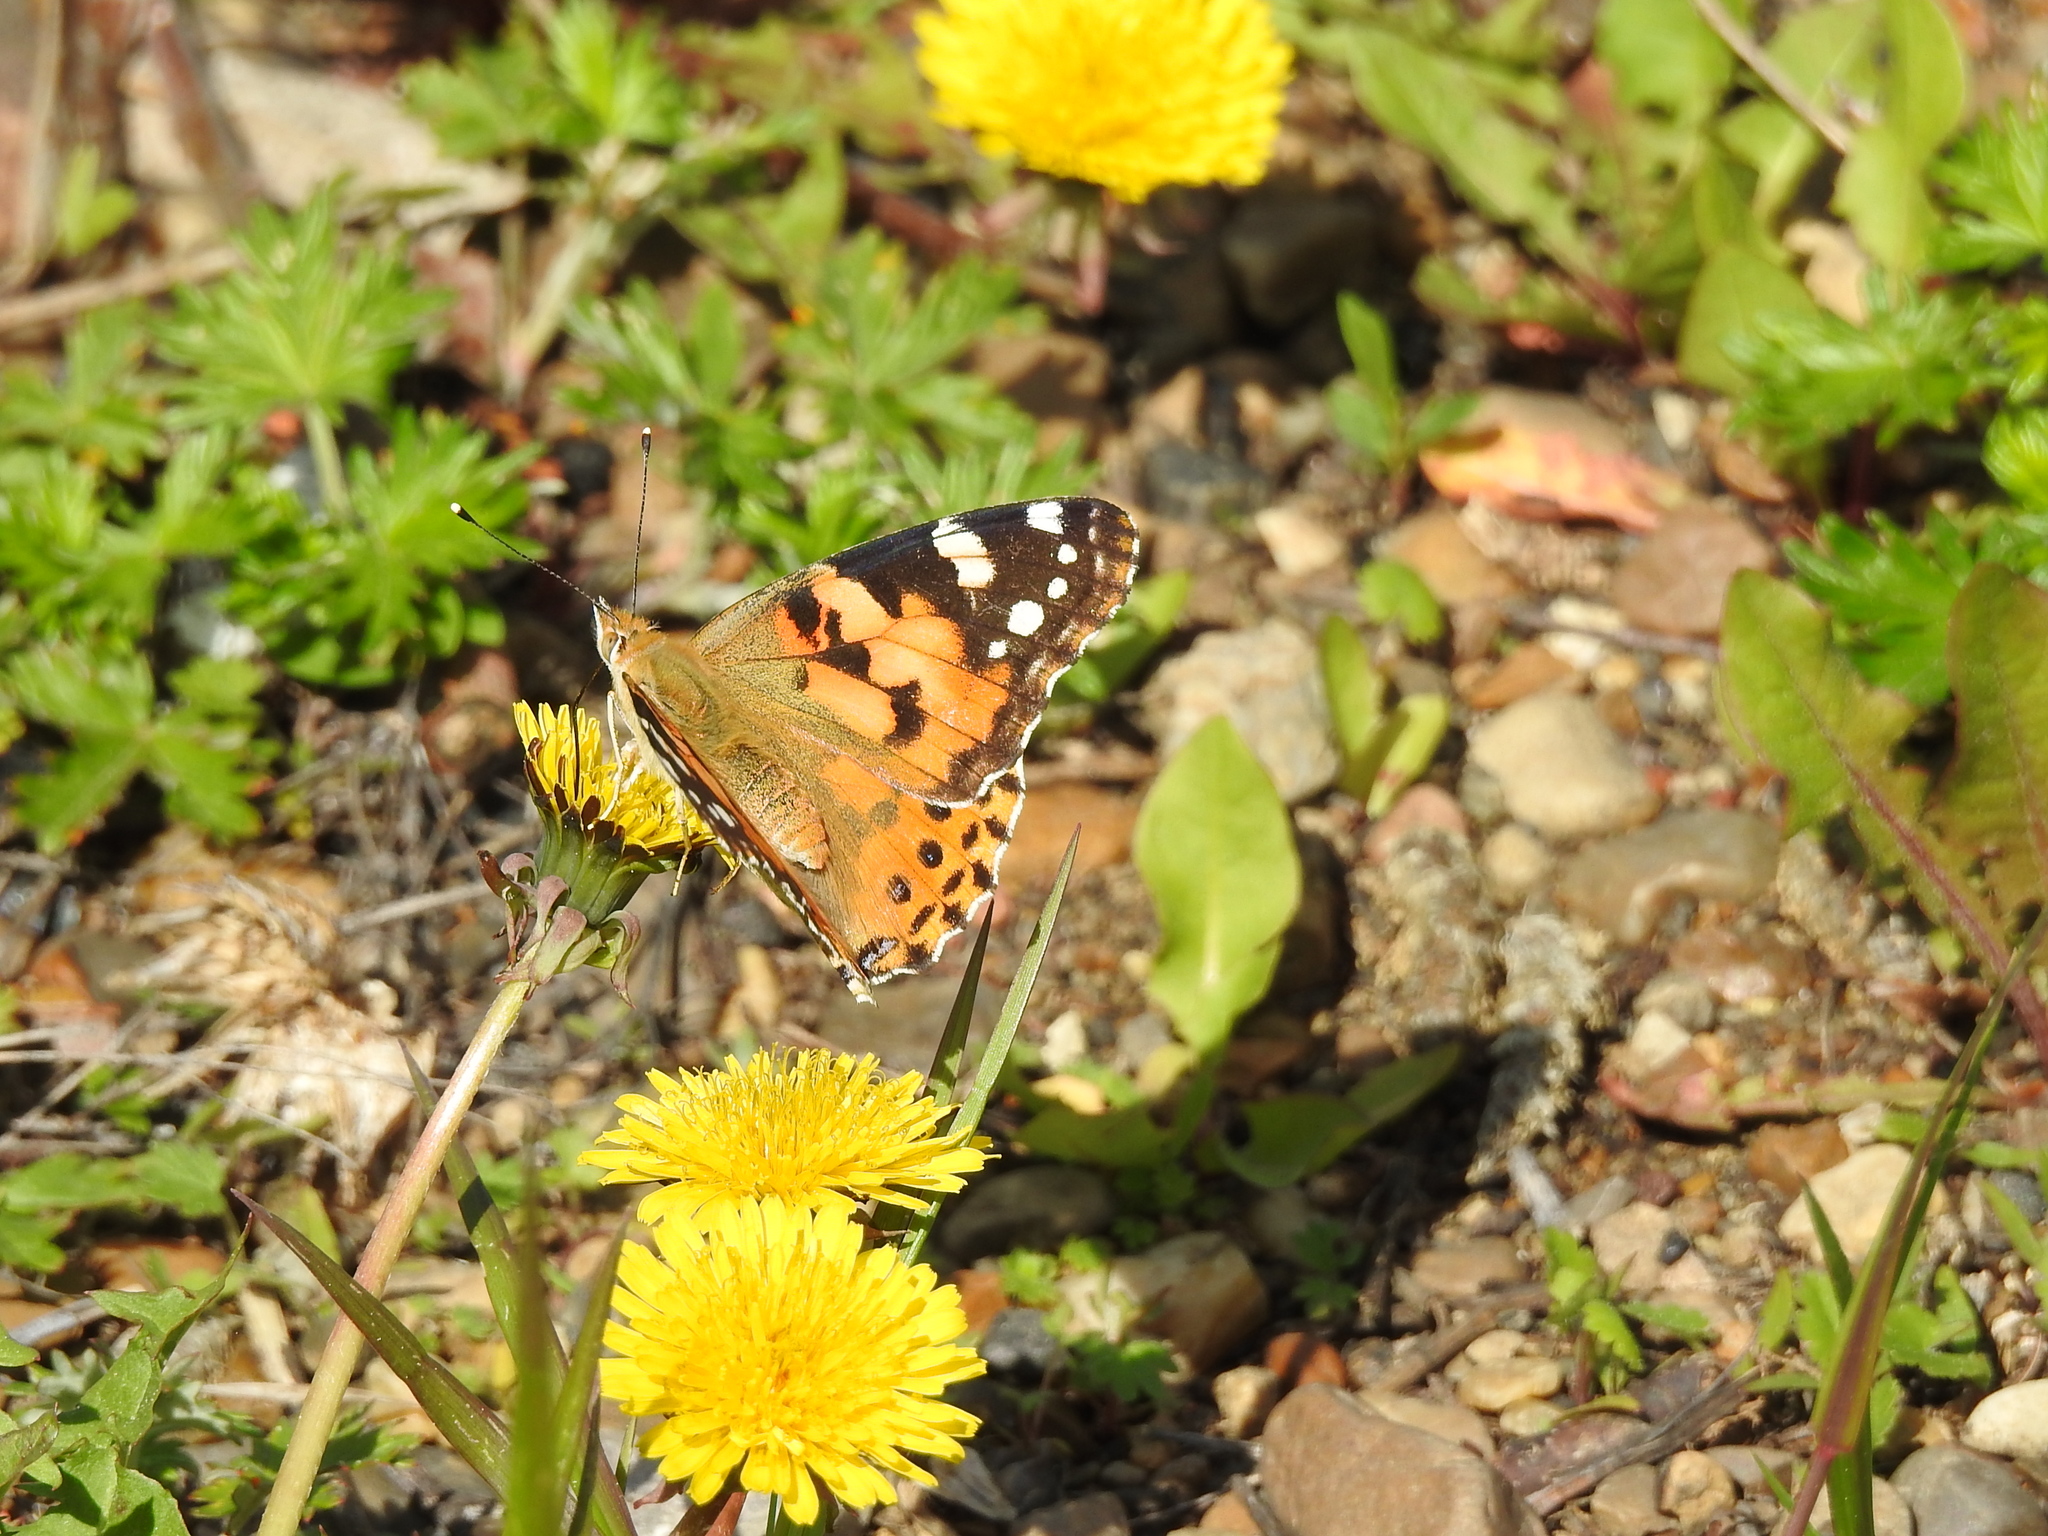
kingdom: Animalia
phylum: Arthropoda
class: Insecta
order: Lepidoptera
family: Nymphalidae
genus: Vanessa
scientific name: Vanessa cardui
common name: Painted lady
